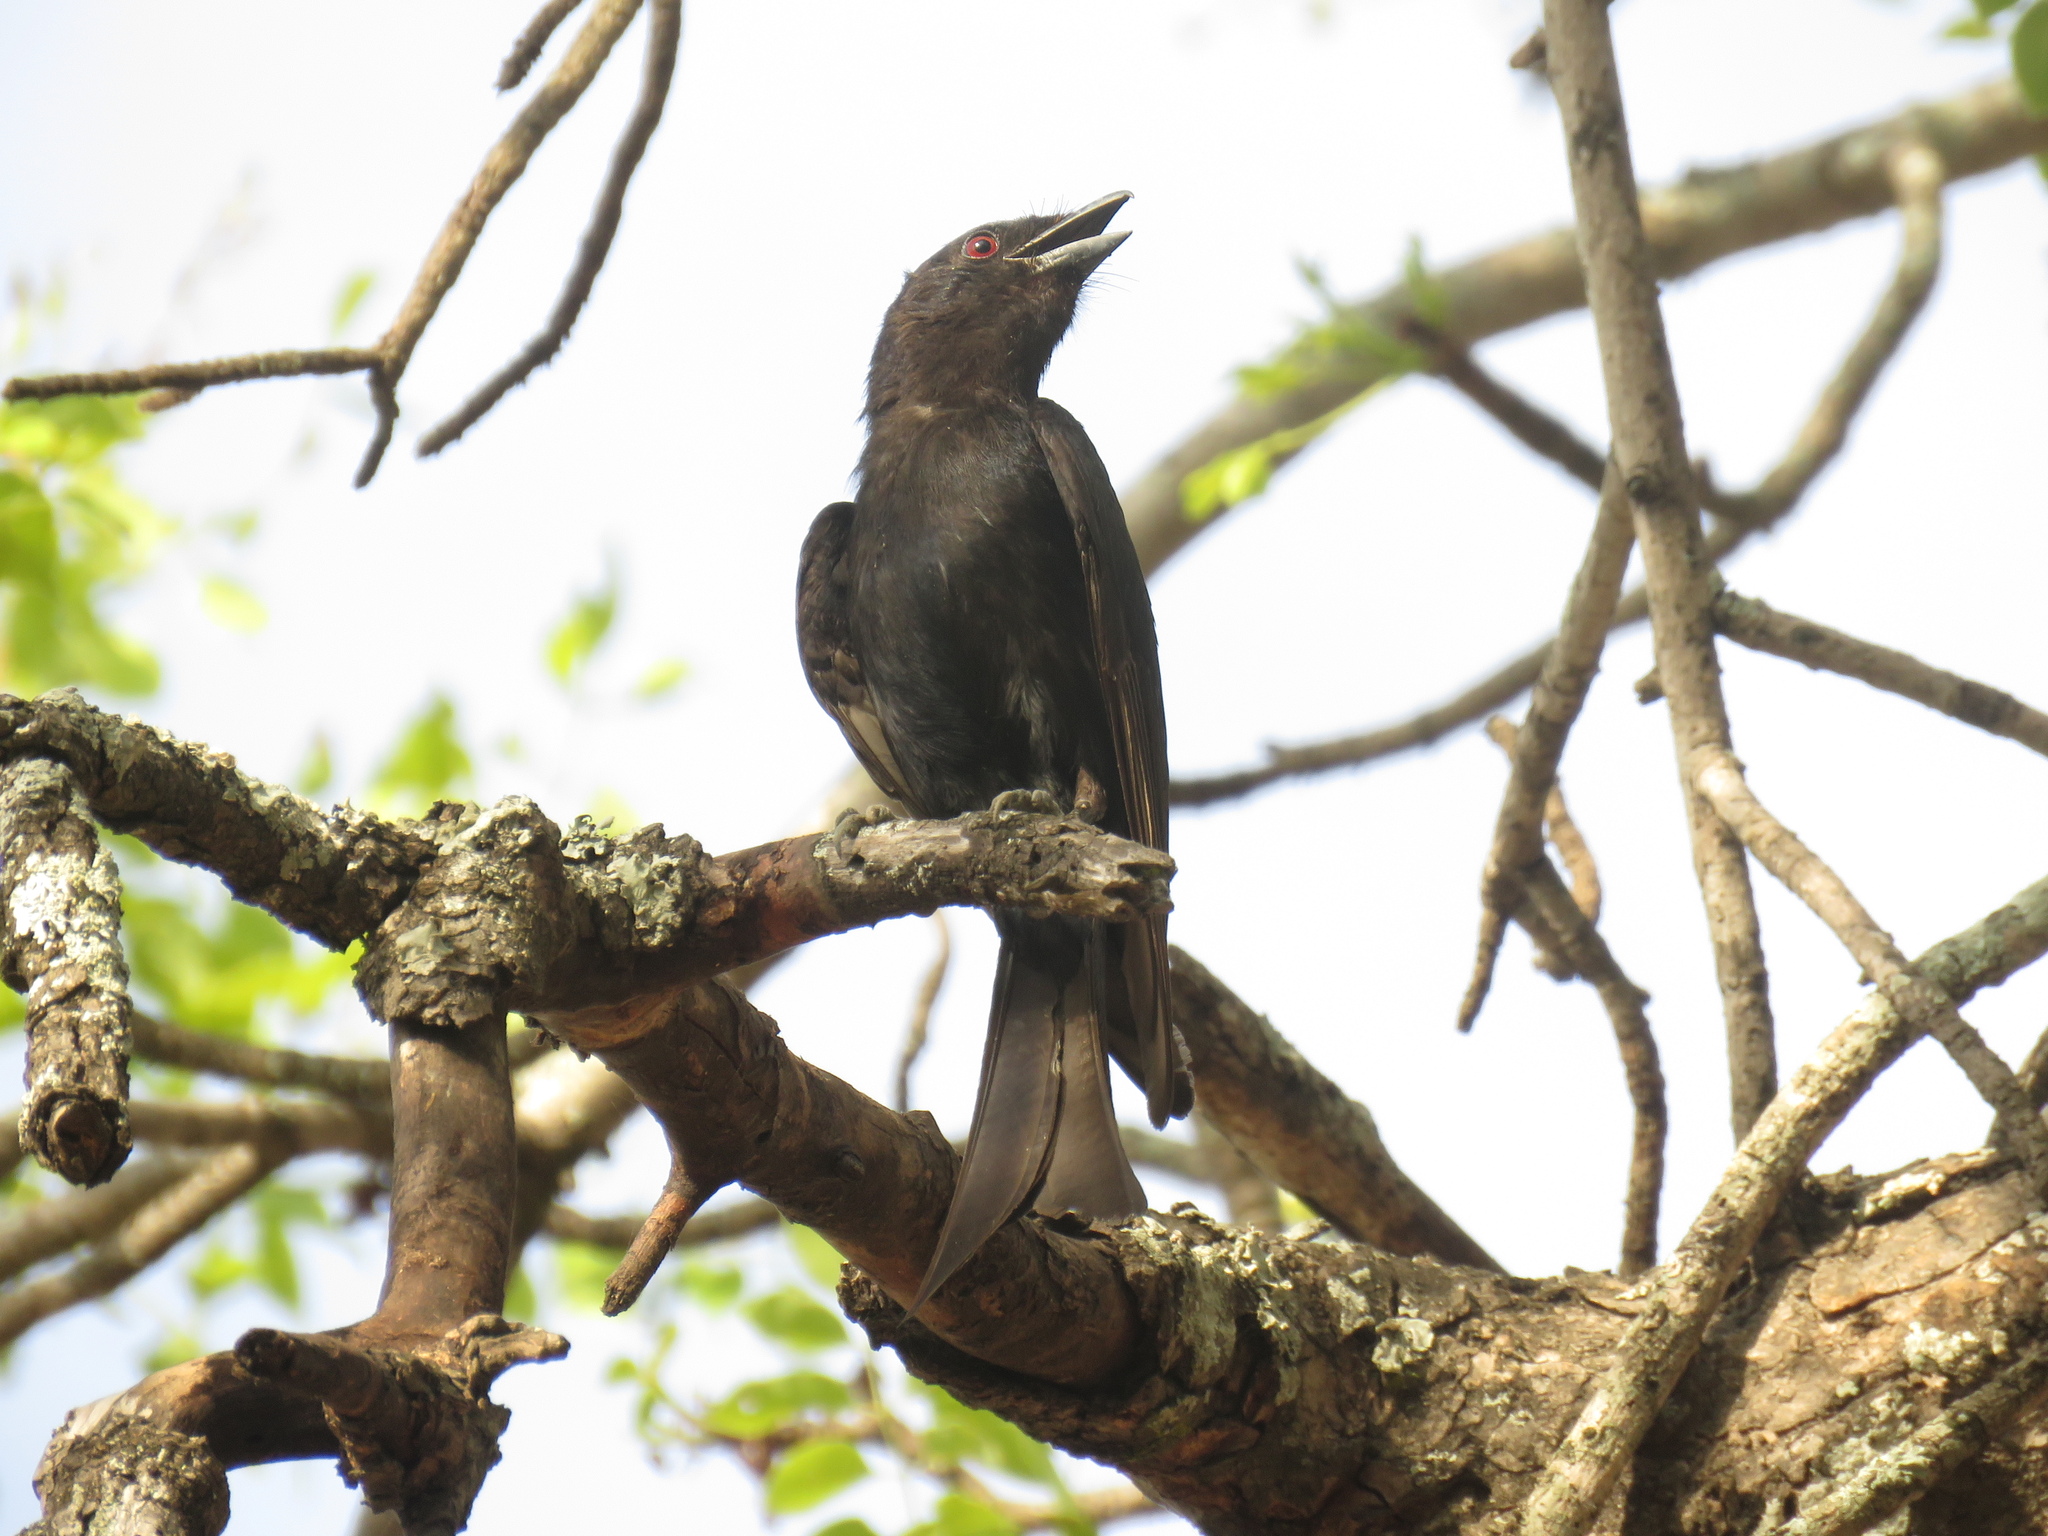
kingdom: Animalia
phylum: Chordata
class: Aves
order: Passeriformes
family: Dicruridae
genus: Dicrurus
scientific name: Dicrurus adsimilis
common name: Fork-tailed drongo
